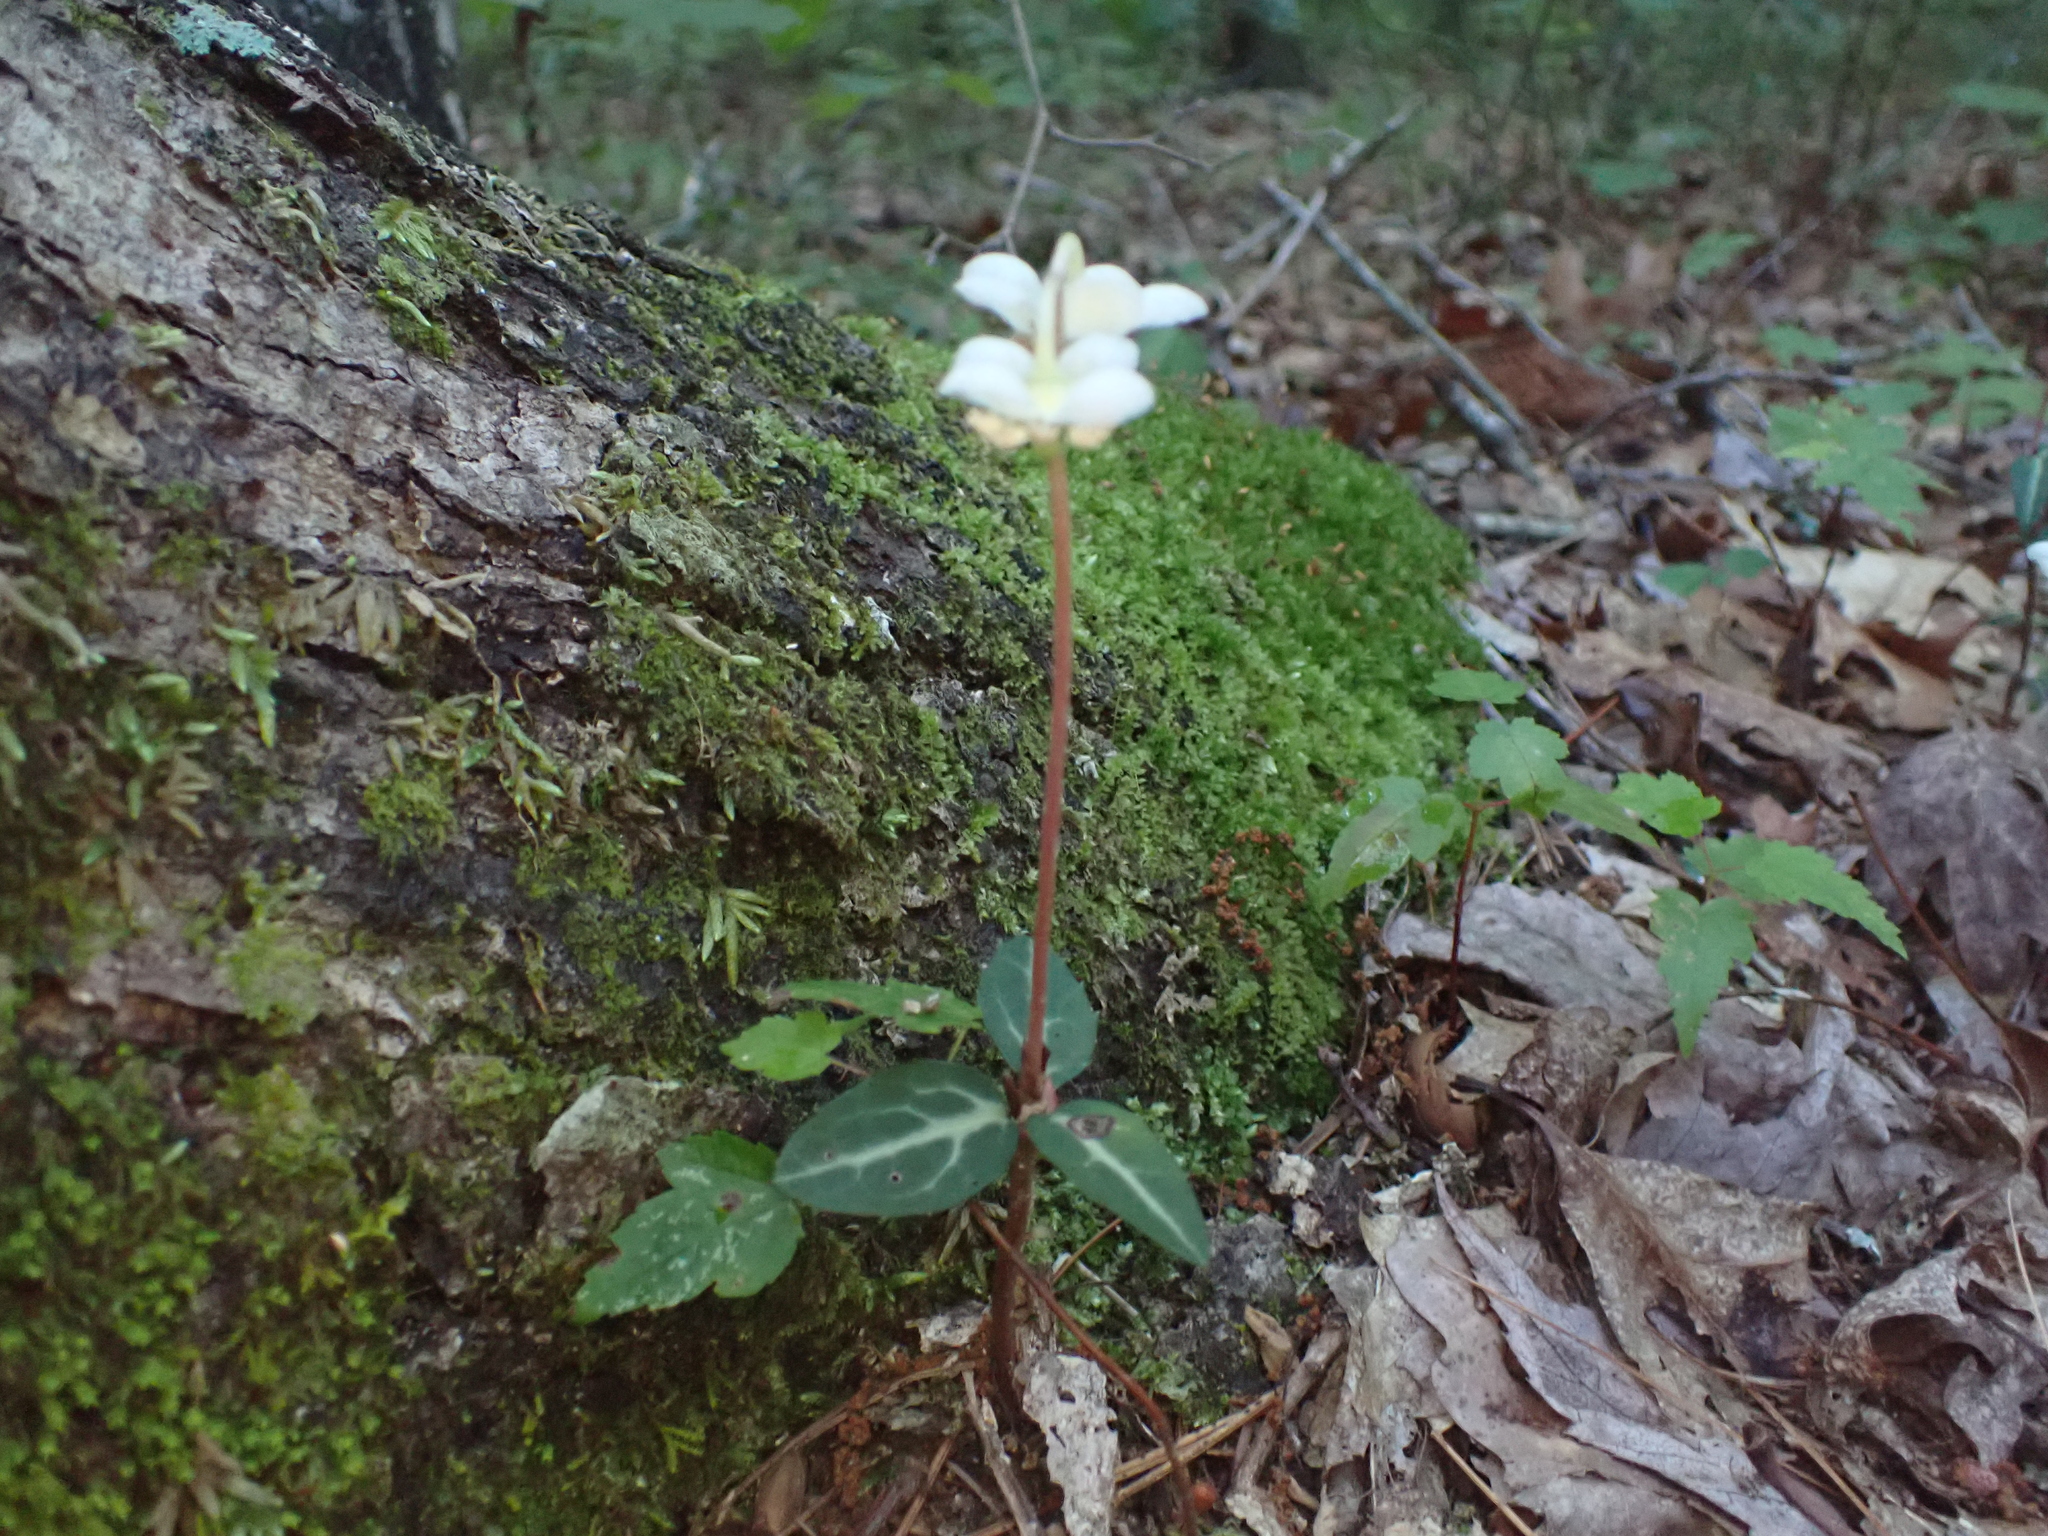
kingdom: Plantae
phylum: Tracheophyta
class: Magnoliopsida
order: Ericales
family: Ericaceae
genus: Chimaphila
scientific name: Chimaphila maculata
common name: Spotted pipsissewa
